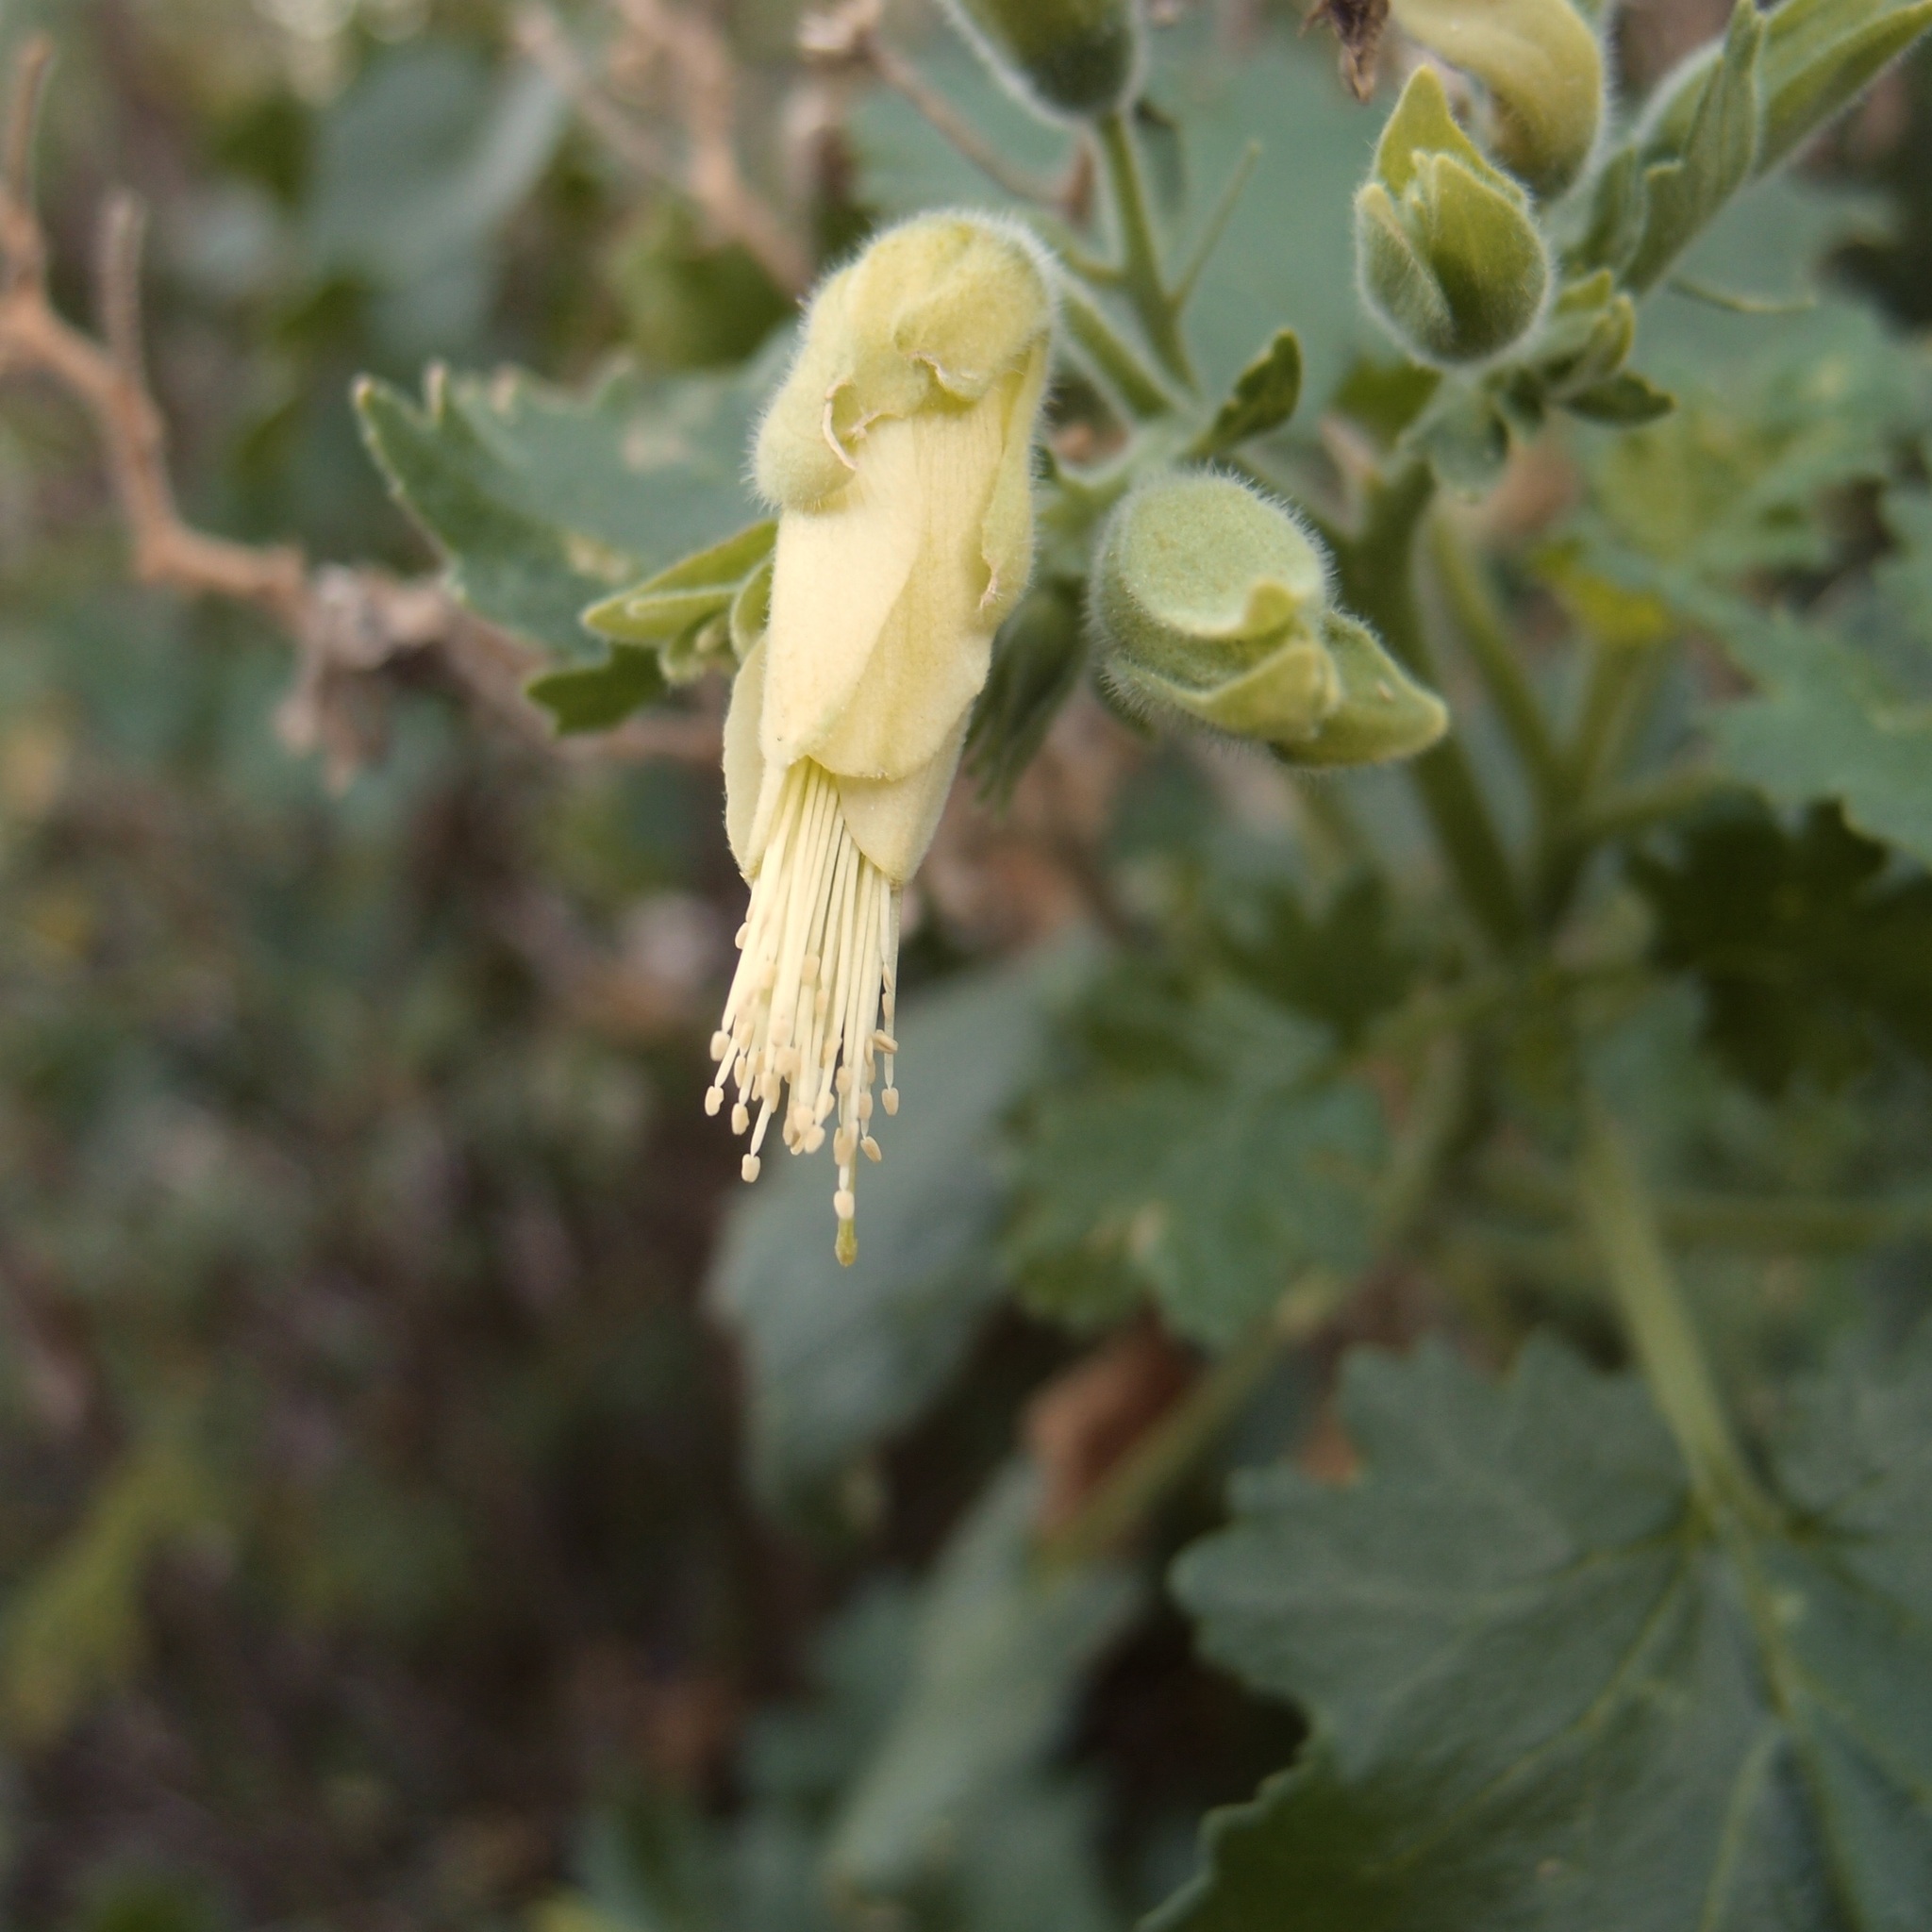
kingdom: Plantae
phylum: Tracheophyta
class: Magnoliopsida
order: Cornales
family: Loasaceae
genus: Eucnide
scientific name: Eucnide cordata
